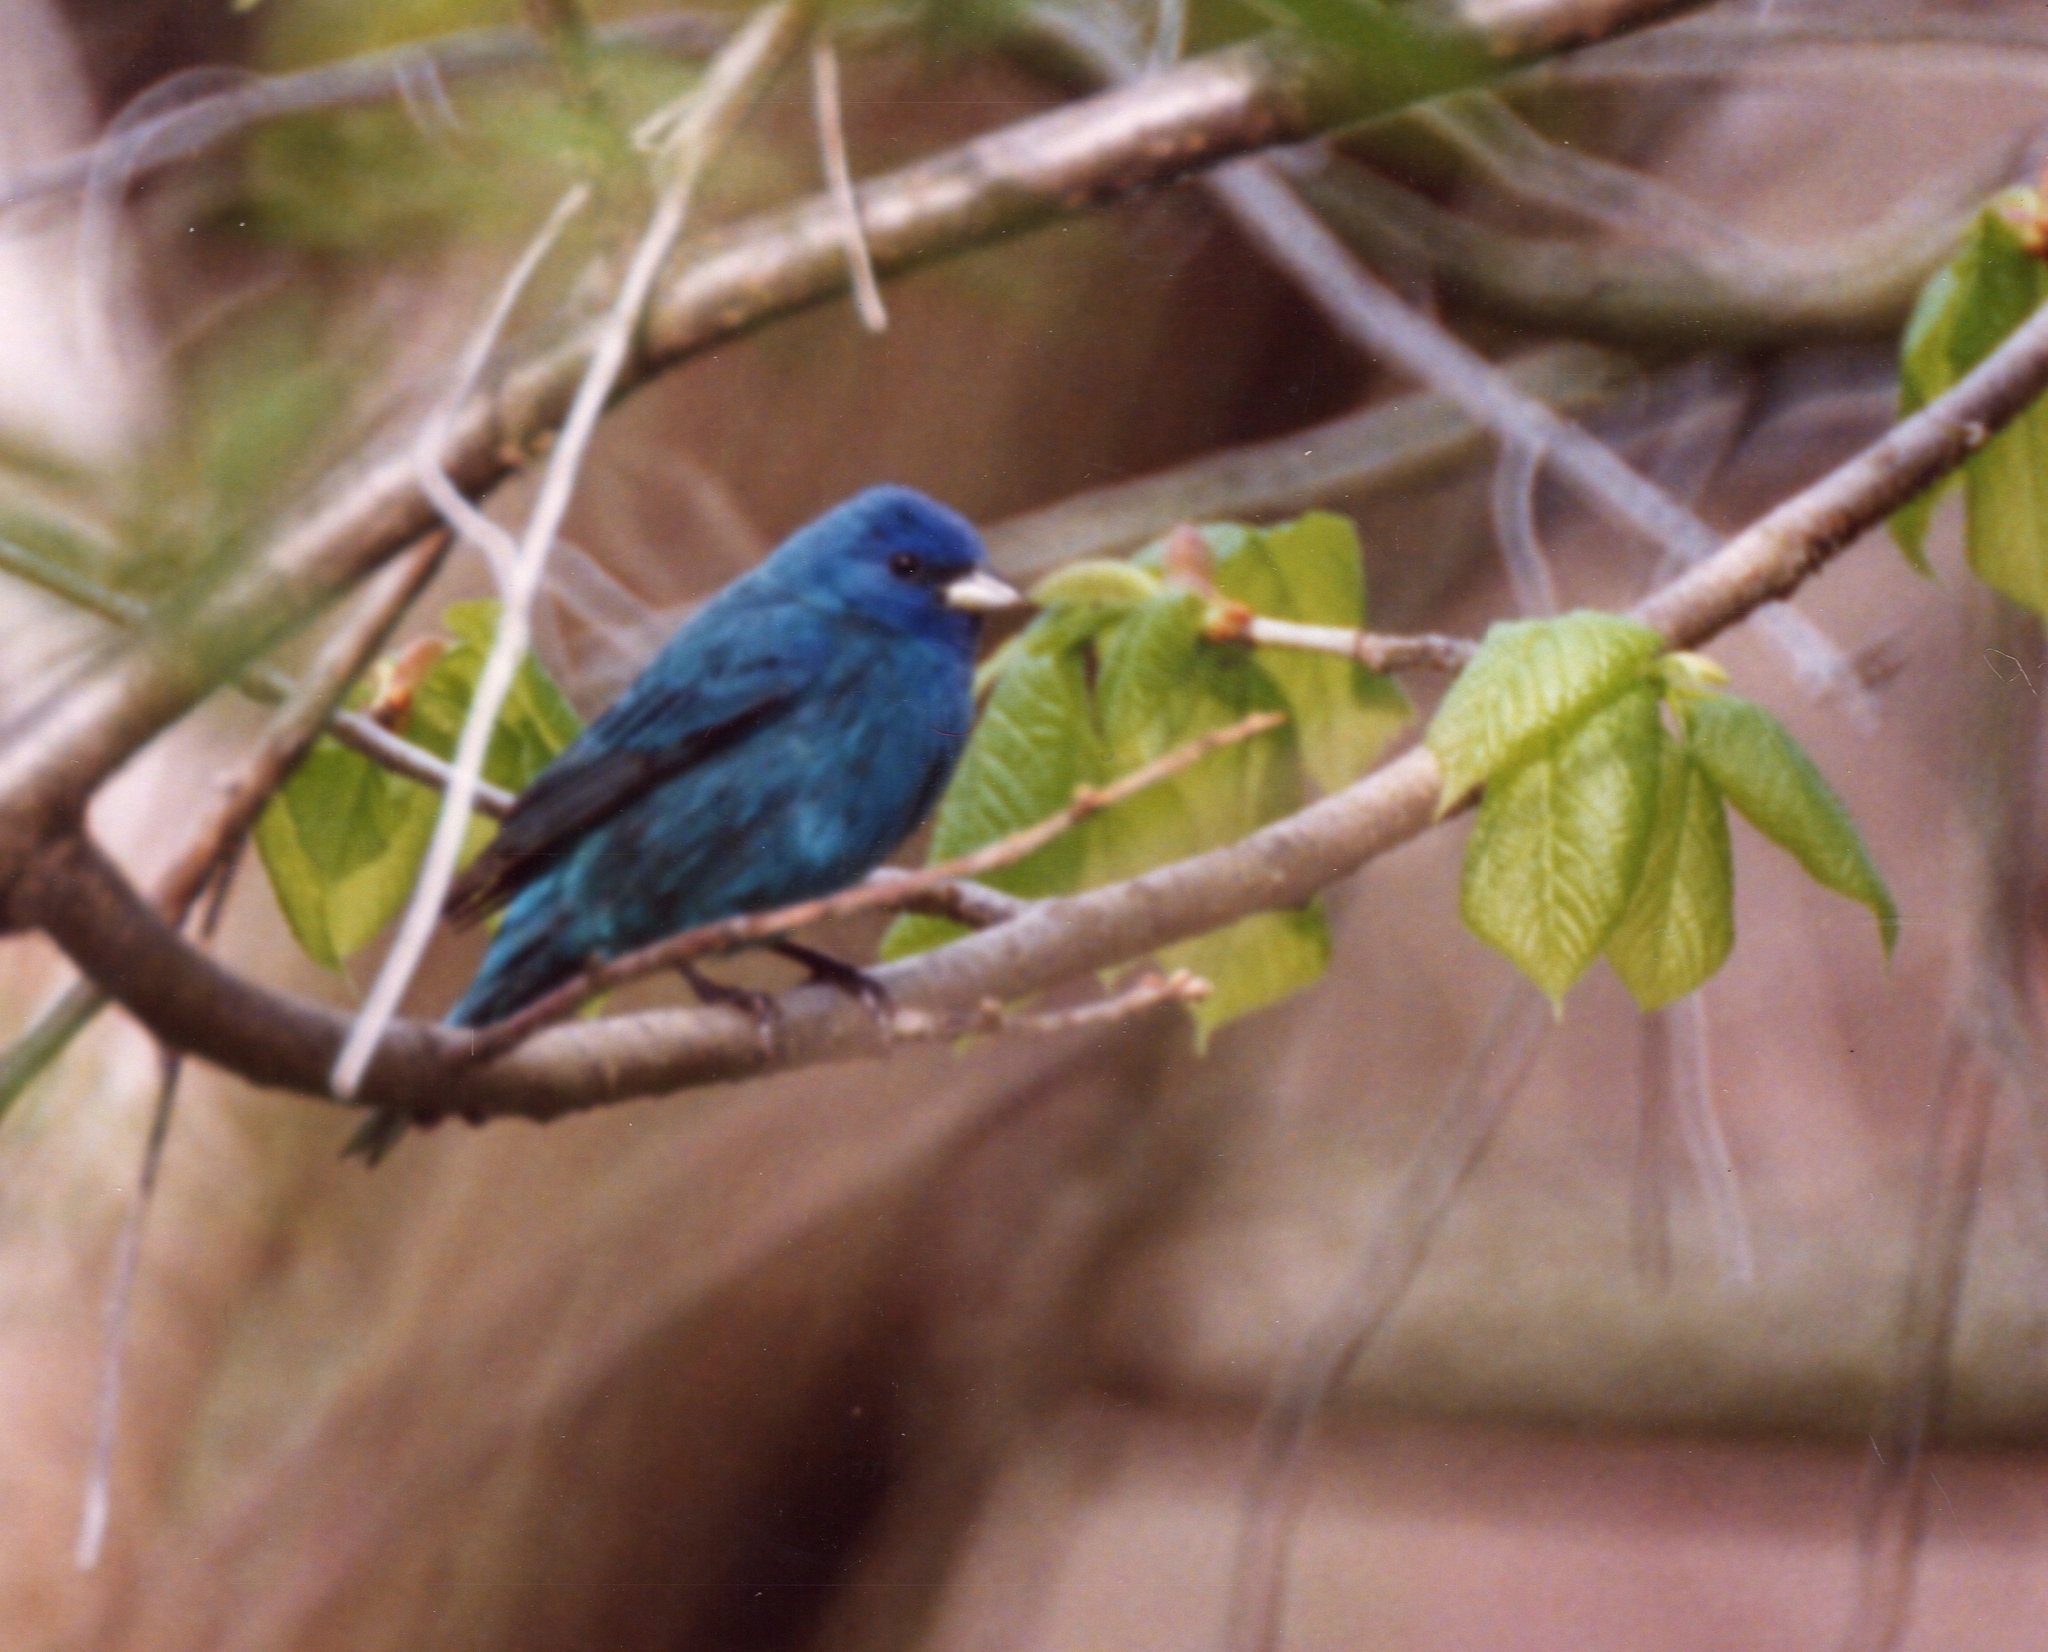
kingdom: Animalia
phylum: Chordata
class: Aves
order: Passeriformes
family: Cardinalidae
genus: Passerina
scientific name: Passerina cyanea
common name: Indigo bunting
